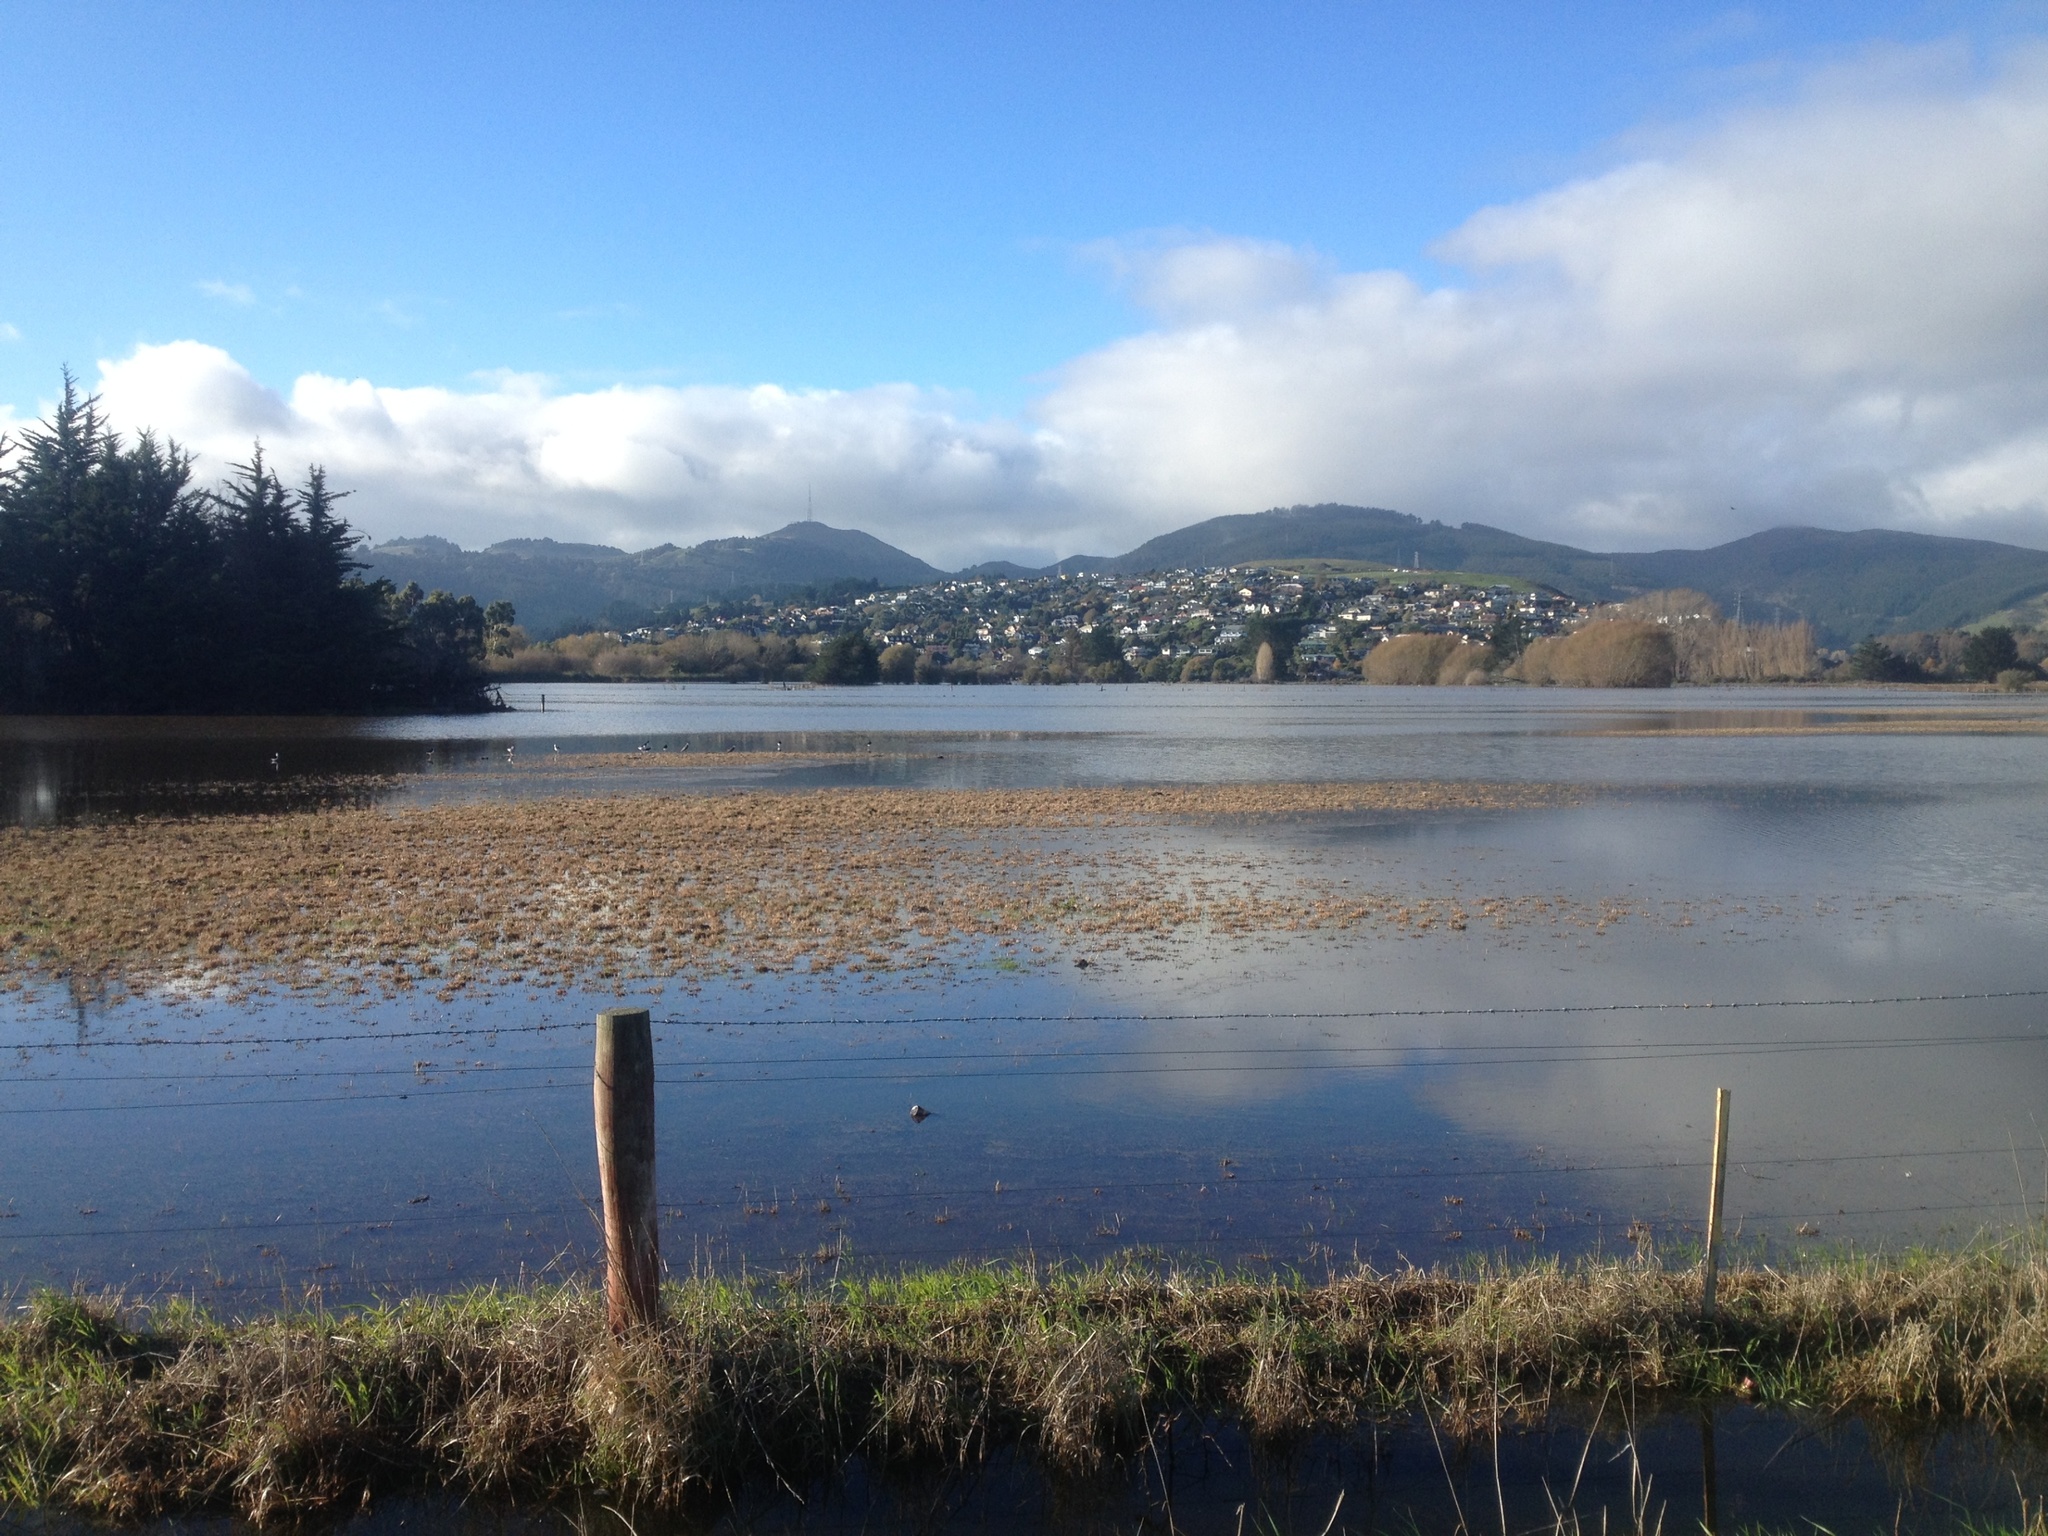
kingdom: Animalia
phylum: Chordata
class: Aves
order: Charadriiformes
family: Recurvirostridae
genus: Himantopus
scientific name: Himantopus leucocephalus
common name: White-headed stilt
